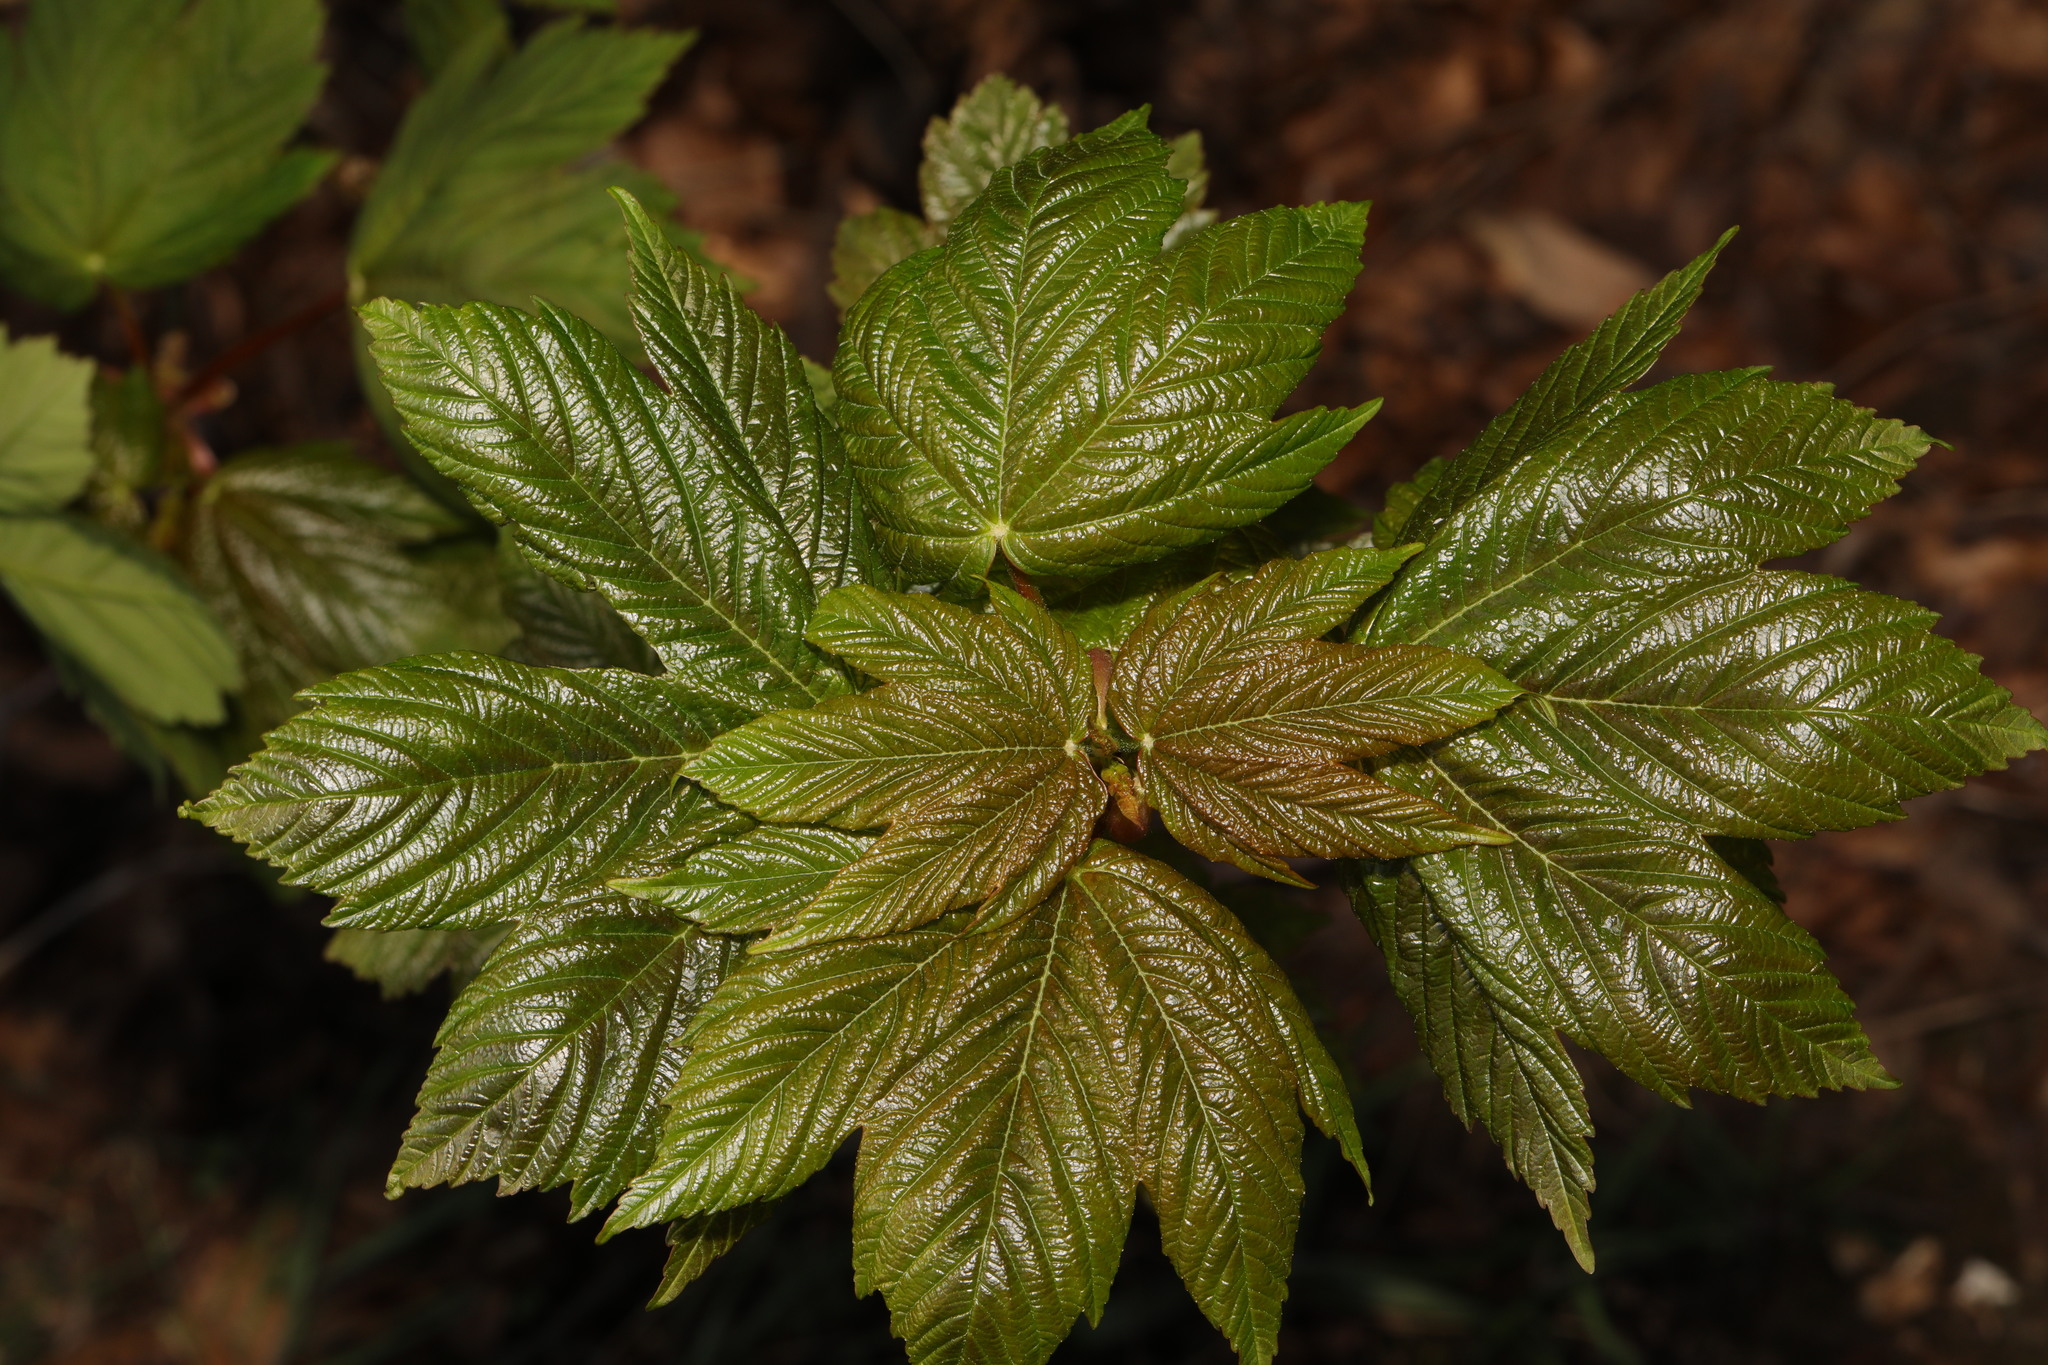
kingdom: Plantae
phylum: Tracheophyta
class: Magnoliopsida
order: Sapindales
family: Sapindaceae
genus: Acer
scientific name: Acer pseudoplatanus
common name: Sycamore
